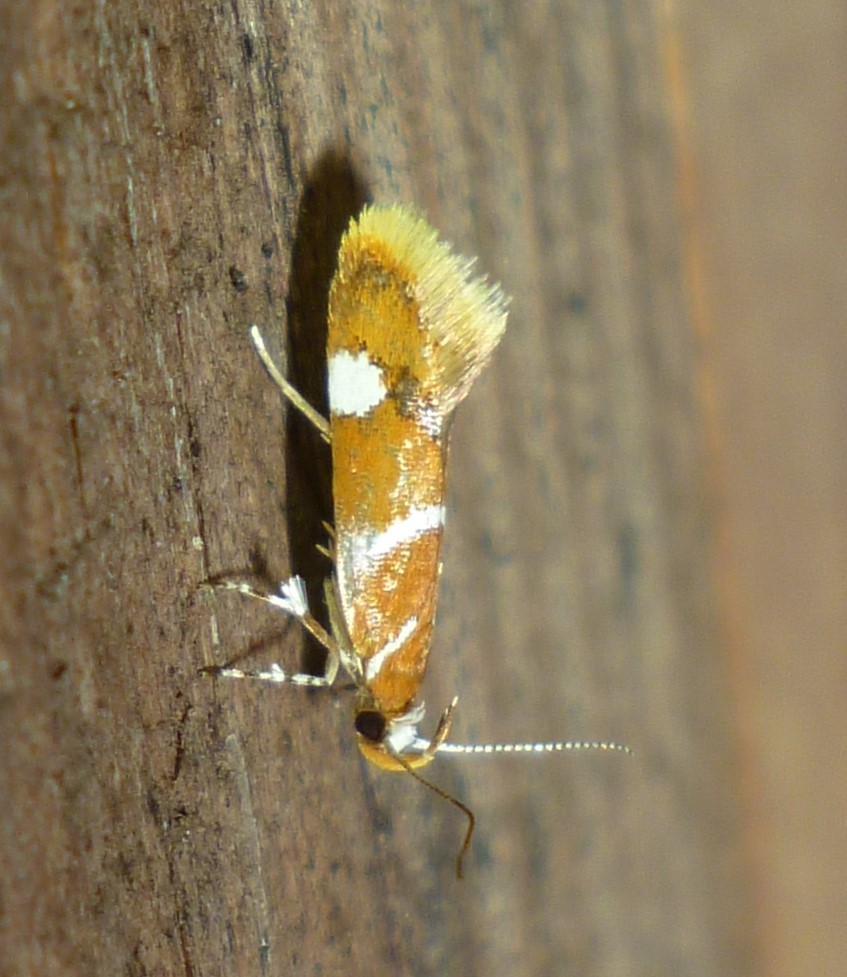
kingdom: Animalia
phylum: Arthropoda
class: Insecta
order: Lepidoptera
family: Oecophoridae
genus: Promalactis
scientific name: Promalactis suzukiella
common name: Moth
